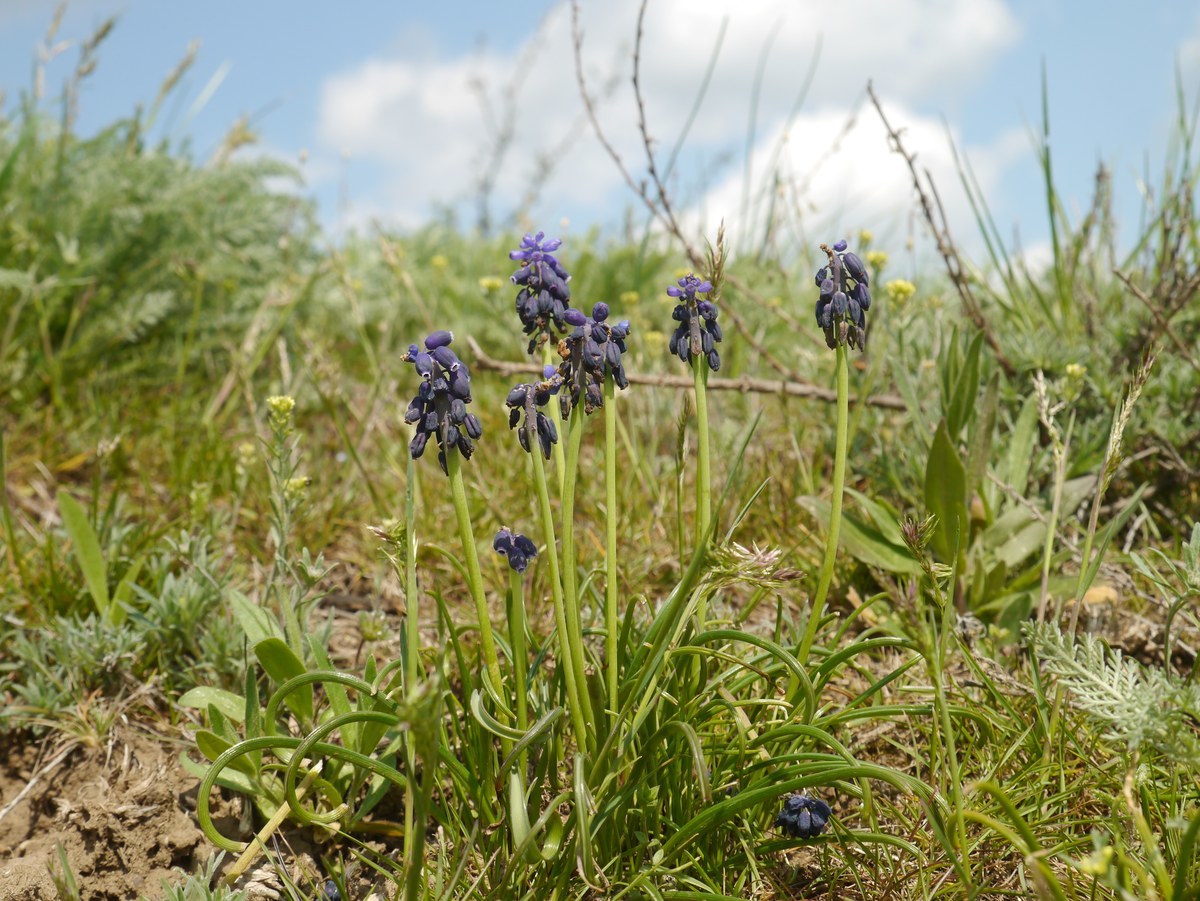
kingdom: Plantae
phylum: Tracheophyta
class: Liliopsida
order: Asparagales
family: Asparagaceae
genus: Muscari
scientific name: Muscari neglectum
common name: Grape-hyacinth
